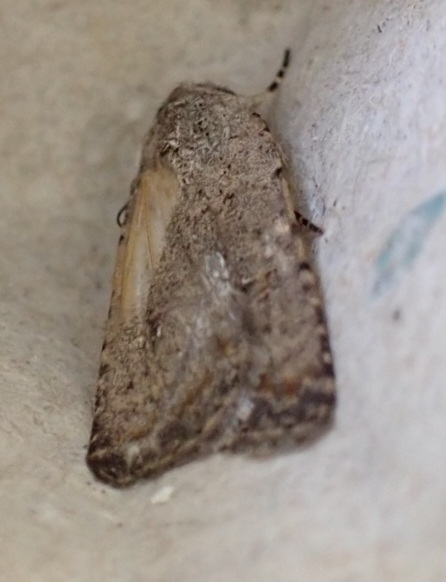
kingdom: Animalia
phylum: Arthropoda
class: Insecta
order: Lepidoptera
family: Noctuidae
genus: Caradrina
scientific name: Caradrina clavipalpis
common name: Pale mottled willow
